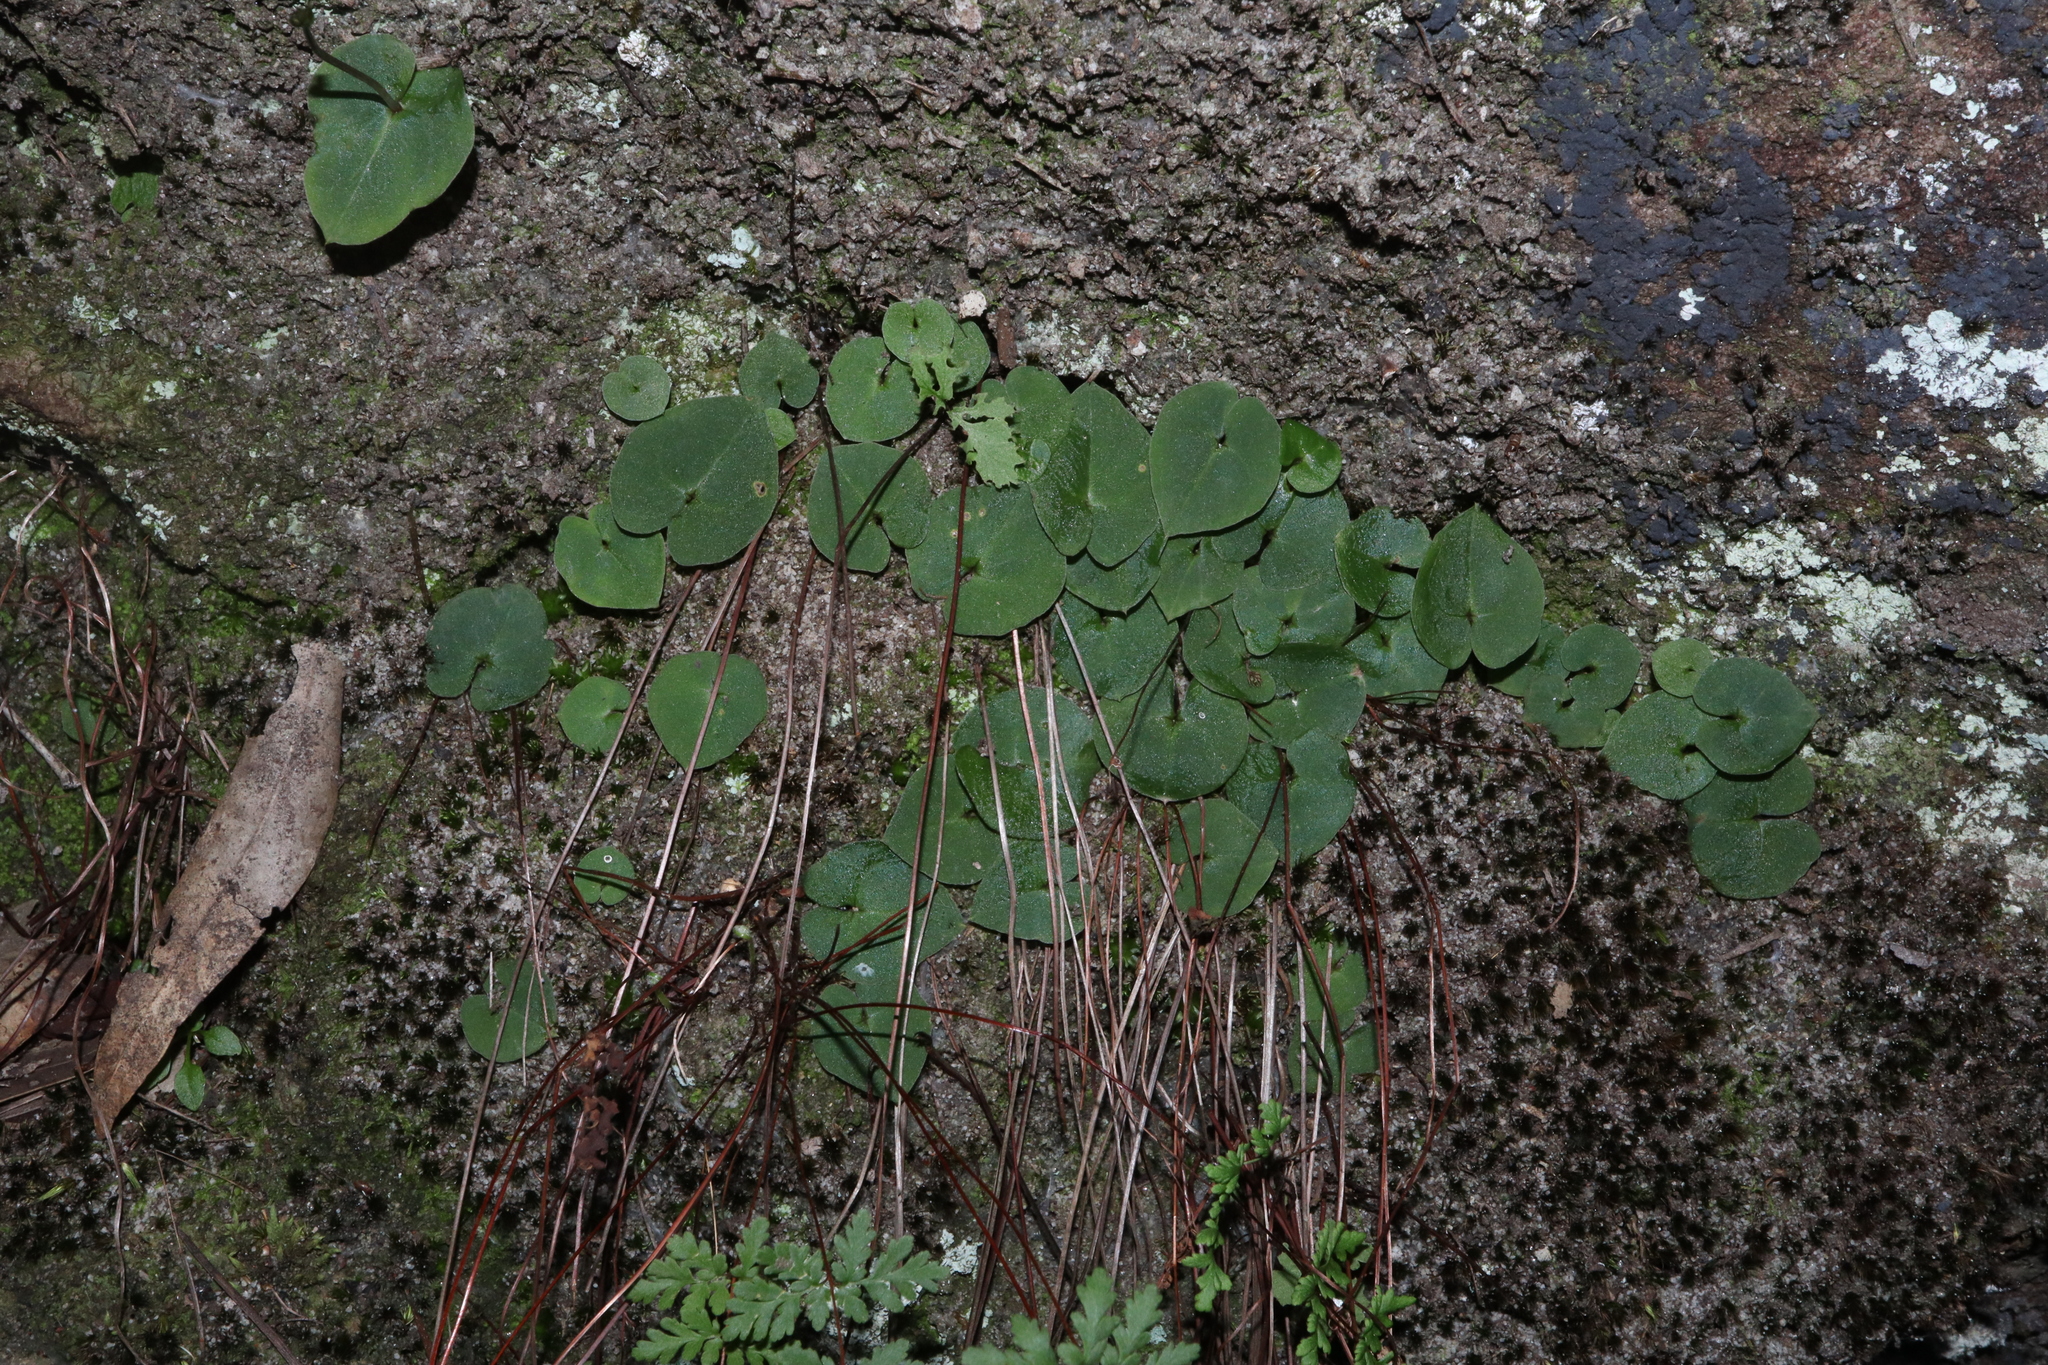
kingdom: Plantae
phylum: Tracheophyta
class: Liliopsida
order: Asparagales
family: Orchidaceae
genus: Acianthus
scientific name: Acianthus
